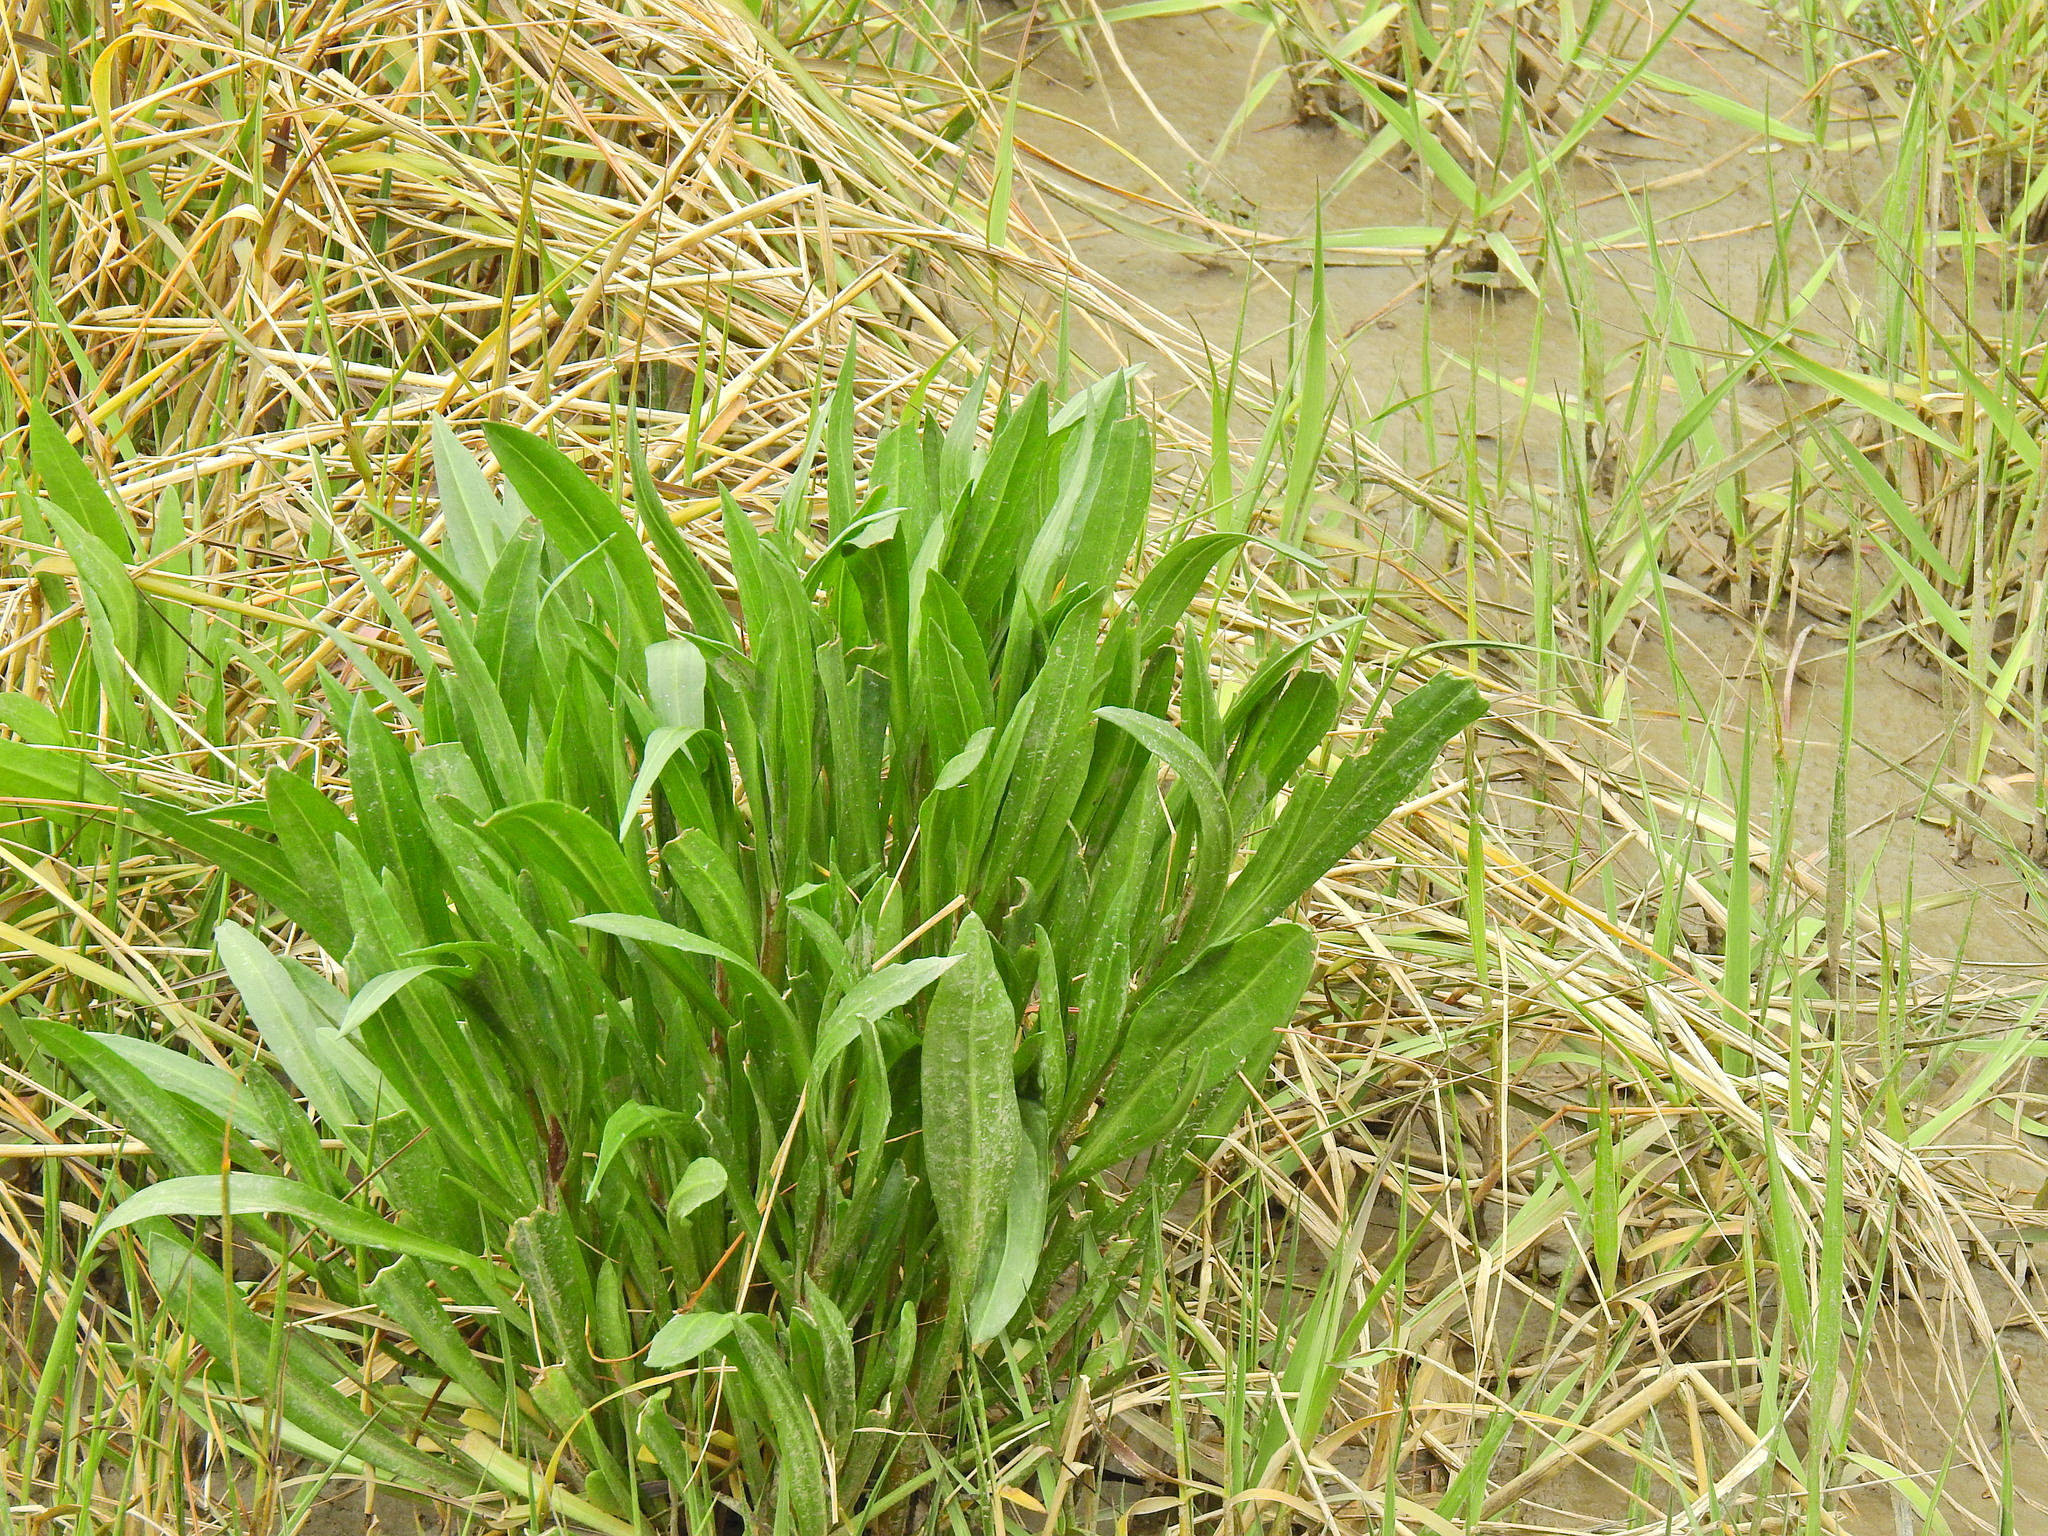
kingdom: Plantae
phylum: Tracheophyta
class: Magnoliopsida
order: Asterales
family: Asteraceae
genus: Tripolium
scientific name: Tripolium pannonicum
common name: Sea aster
